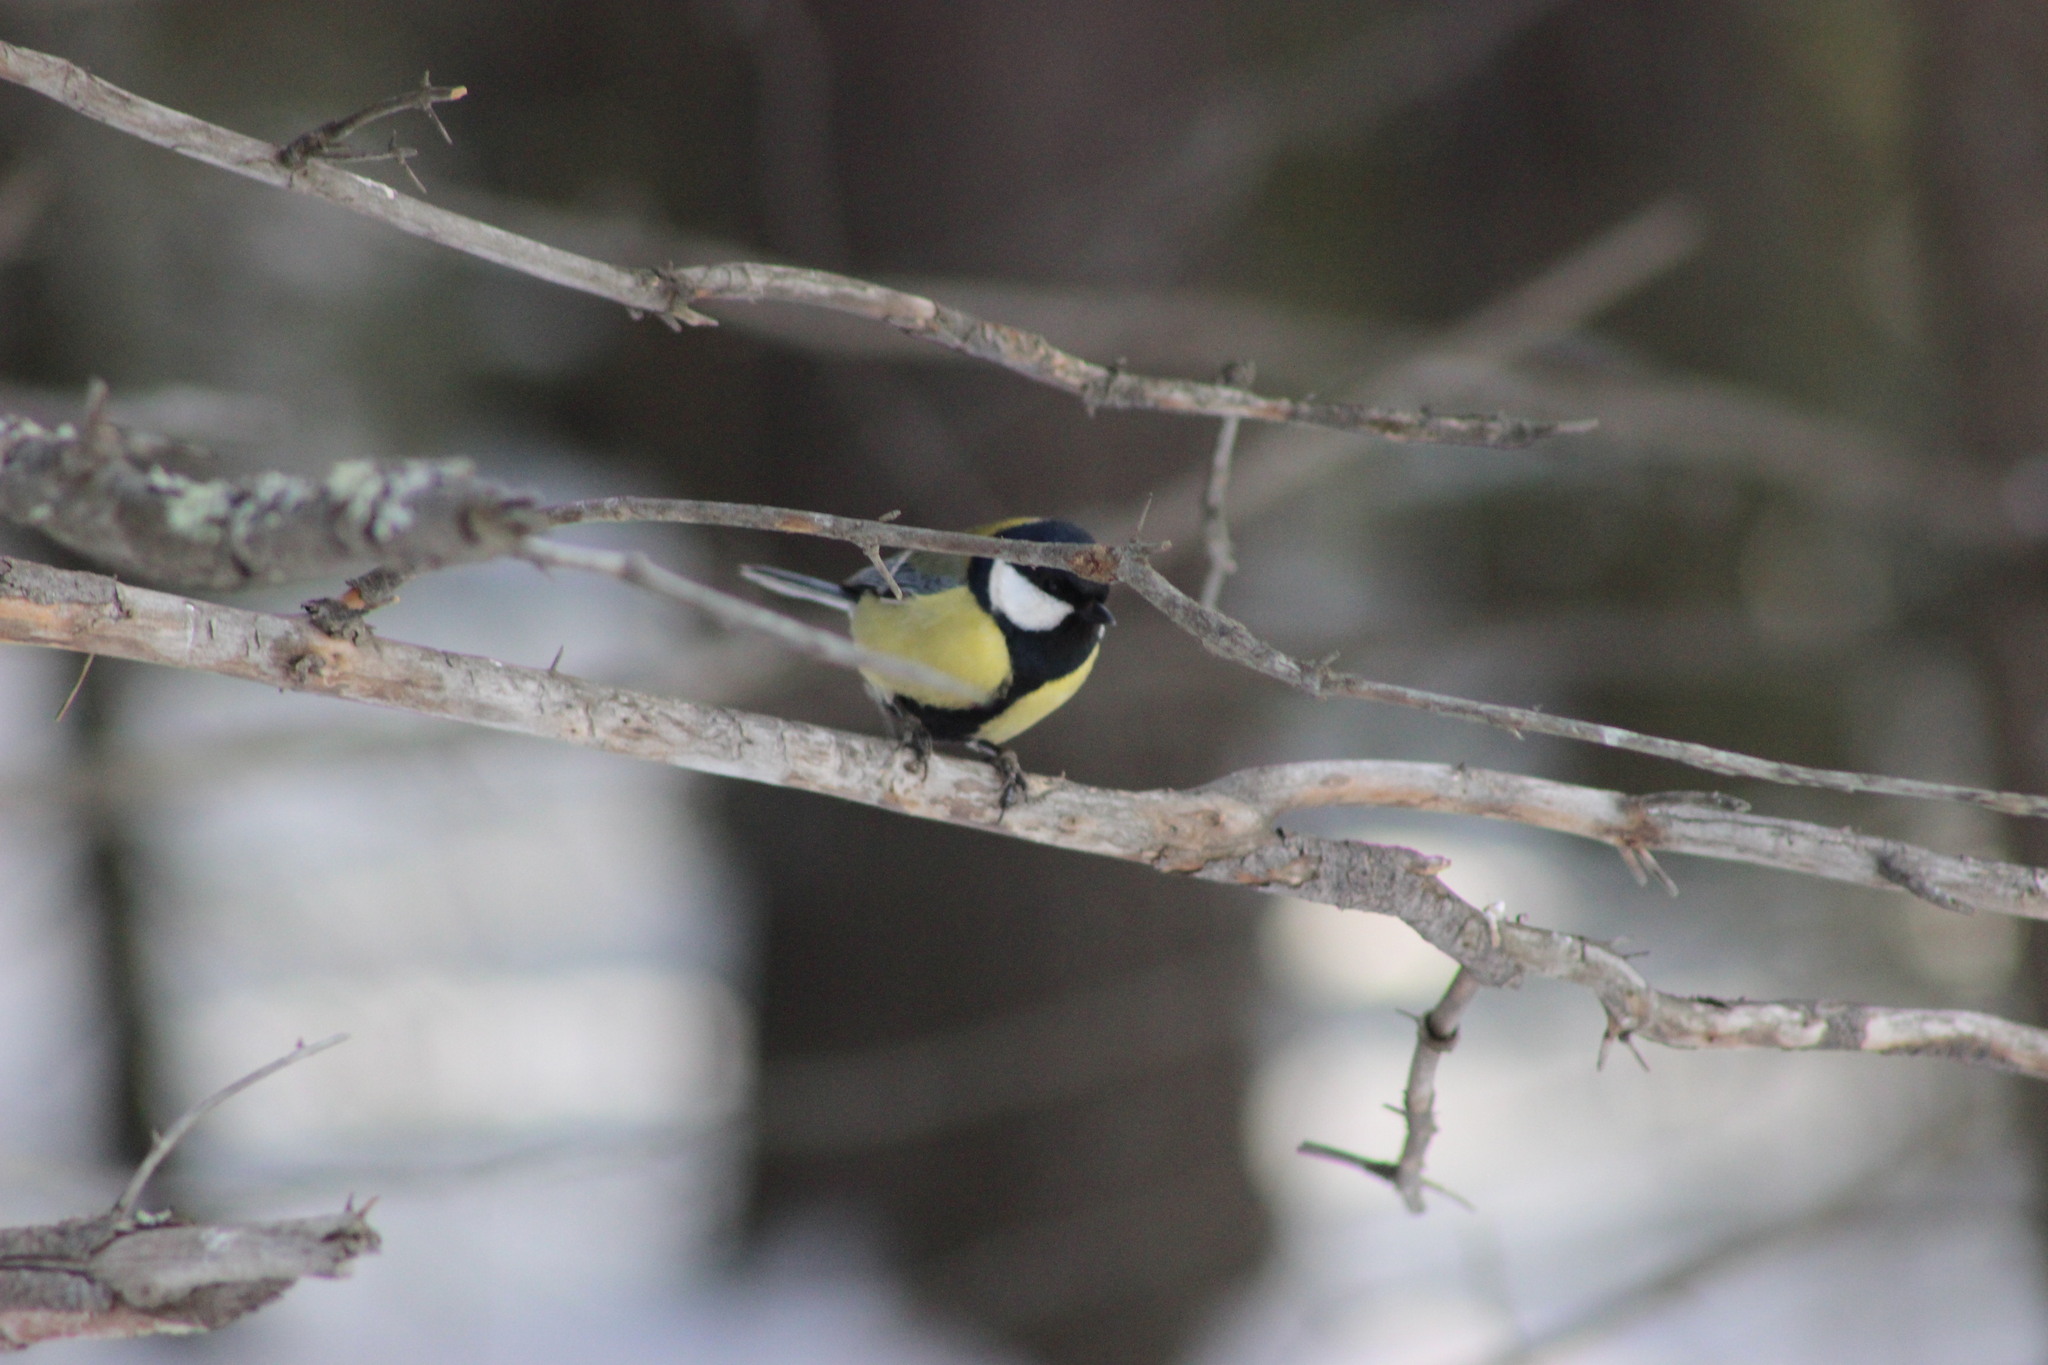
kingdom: Animalia
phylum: Chordata
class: Aves
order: Passeriformes
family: Paridae
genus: Parus
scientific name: Parus major
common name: Great tit
